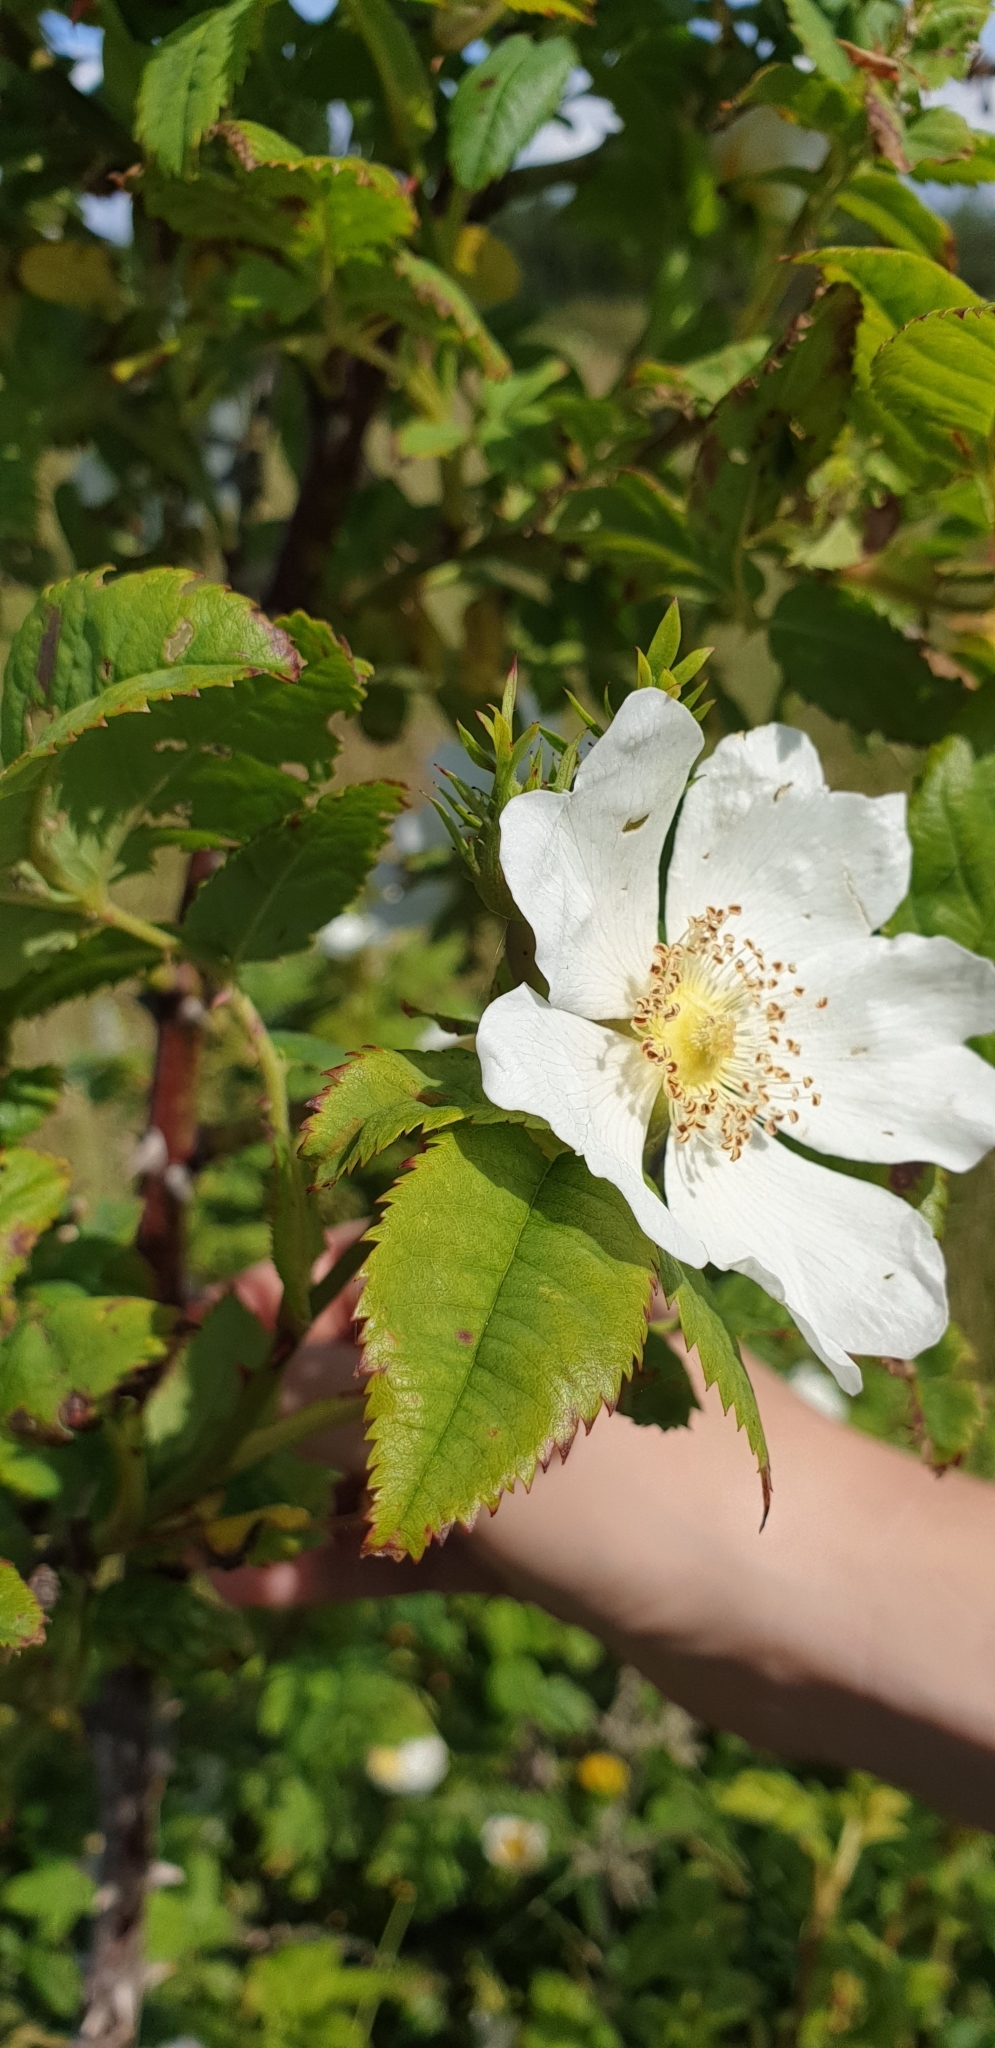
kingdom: Plantae
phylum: Tracheophyta
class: Magnoliopsida
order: Rosales
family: Rosaceae
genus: Rosa
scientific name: Rosa canina
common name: Dog rose
